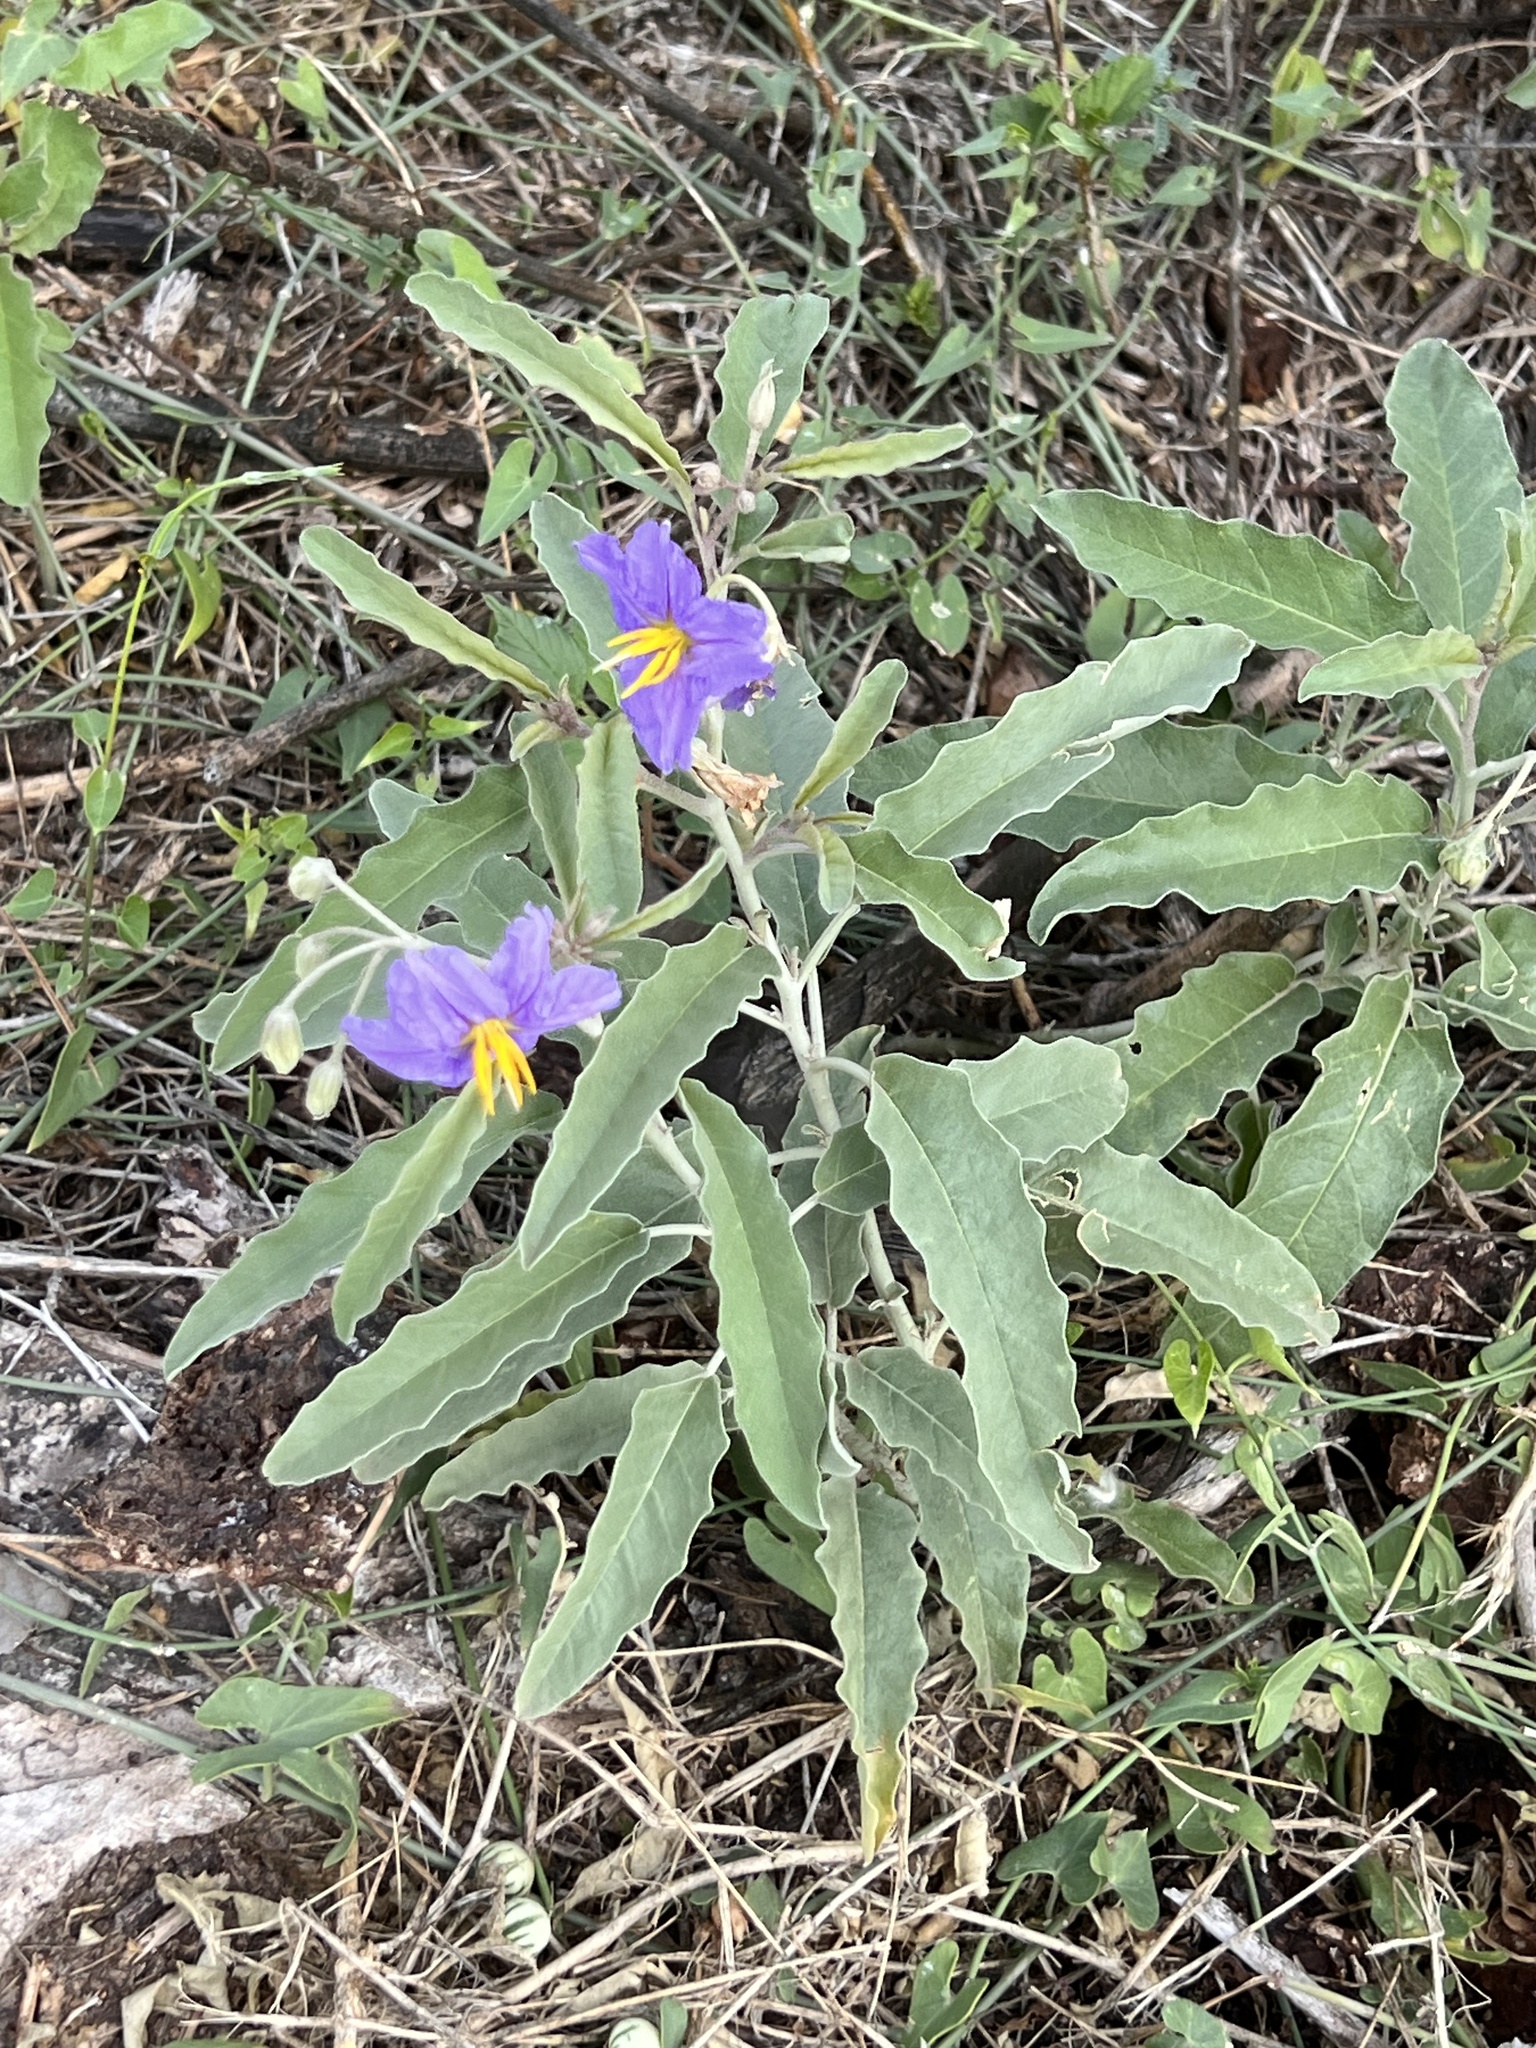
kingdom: Plantae
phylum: Tracheophyta
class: Magnoliopsida
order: Solanales
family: Solanaceae
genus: Solanum
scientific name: Solanum elaeagnifolium
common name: Silverleaf nightshade
